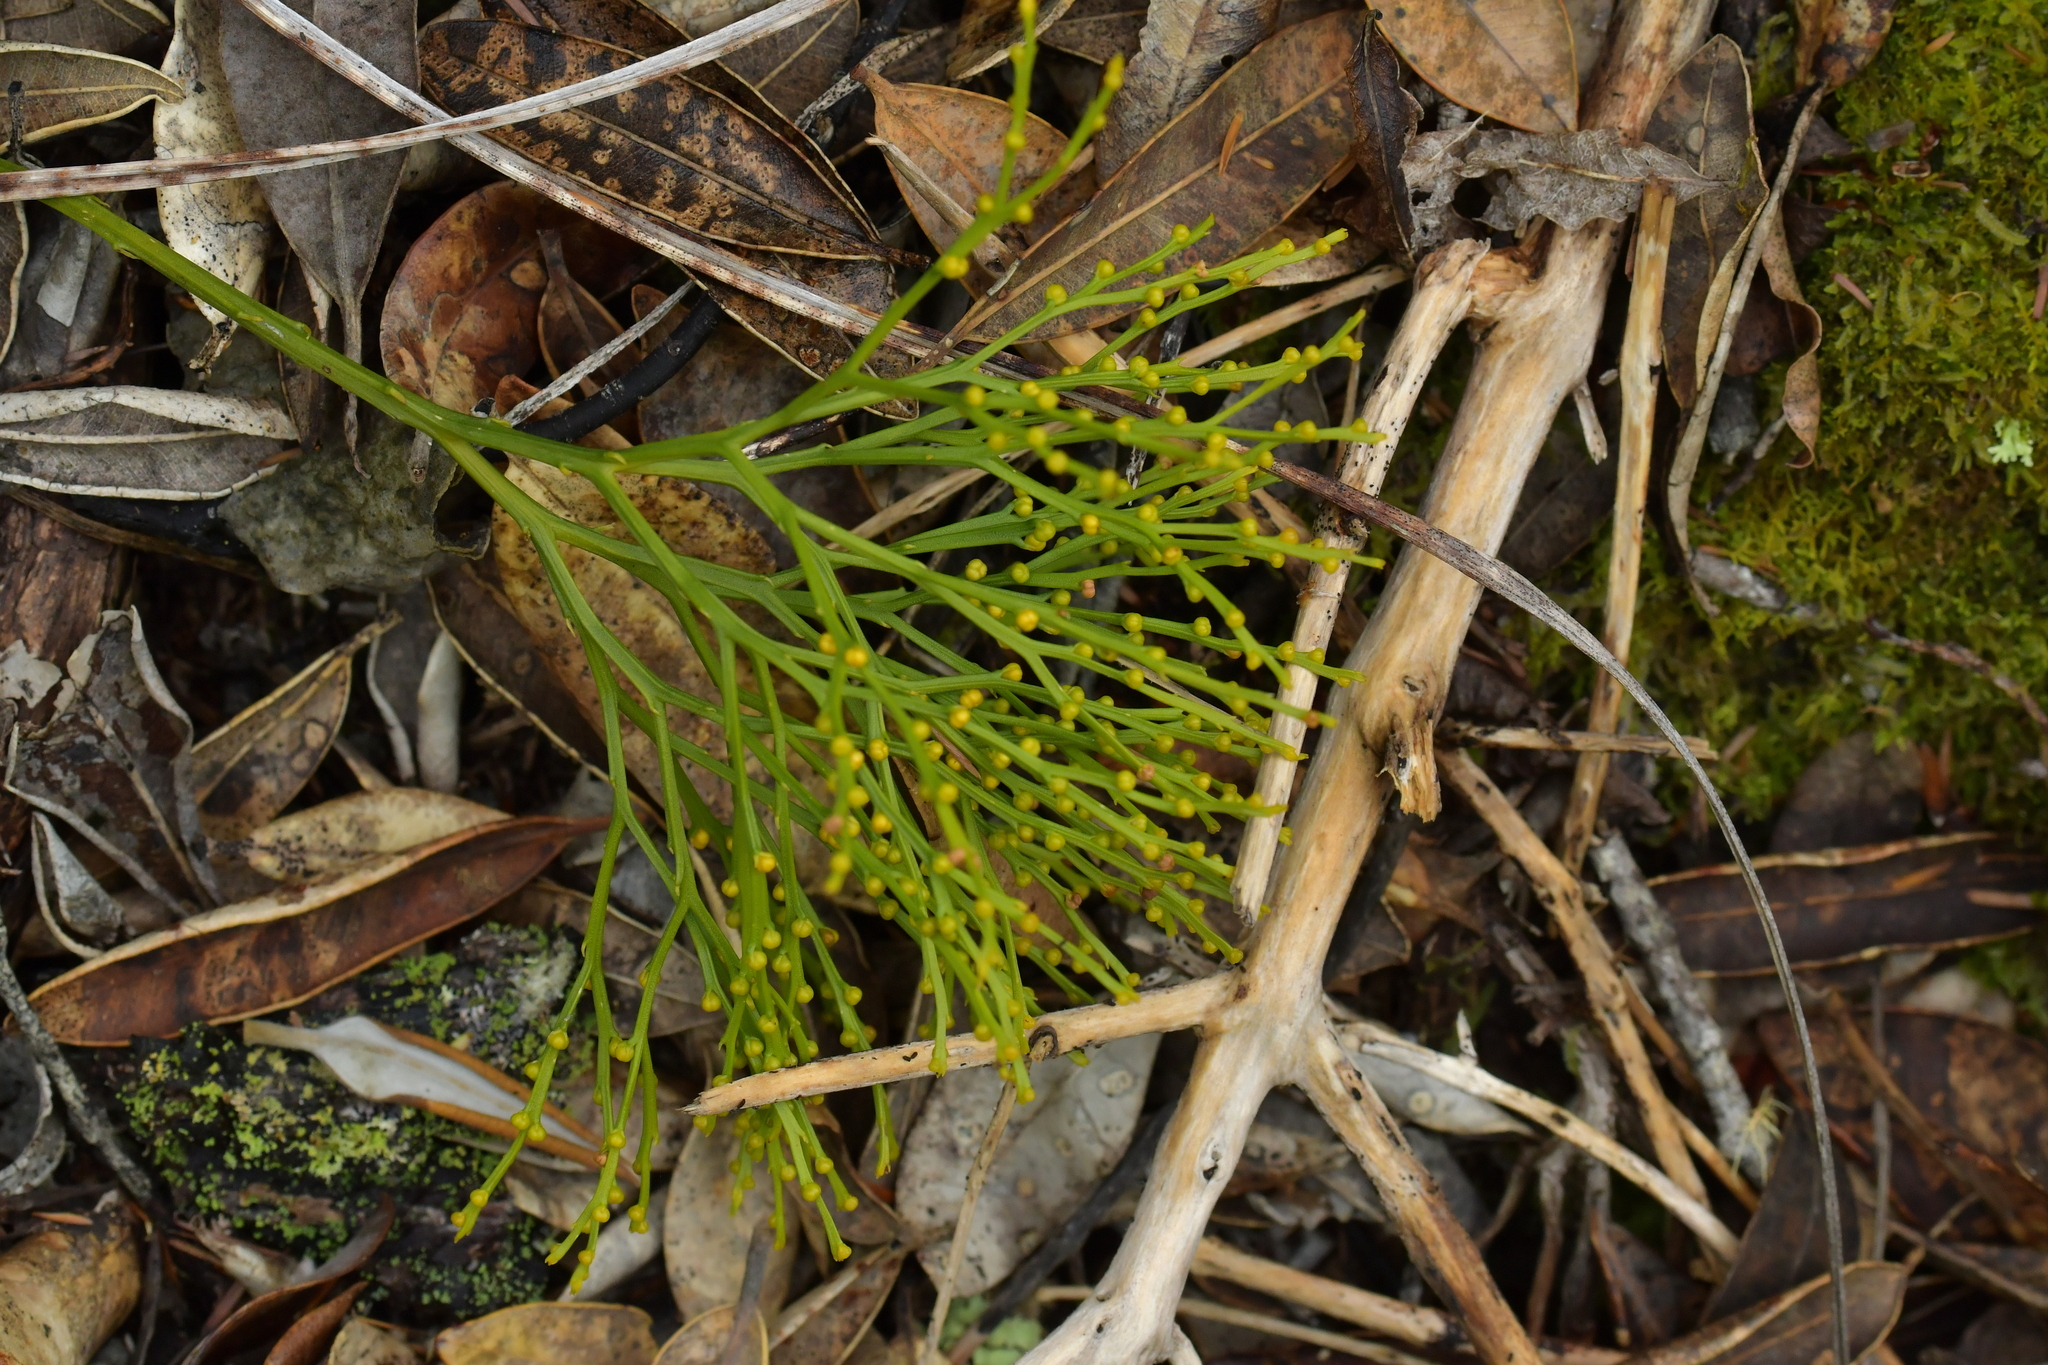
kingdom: Plantae
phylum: Tracheophyta
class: Polypodiopsida
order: Psilotales
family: Psilotaceae
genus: Psilotum
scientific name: Psilotum nudum
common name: Skeleton fork fern
